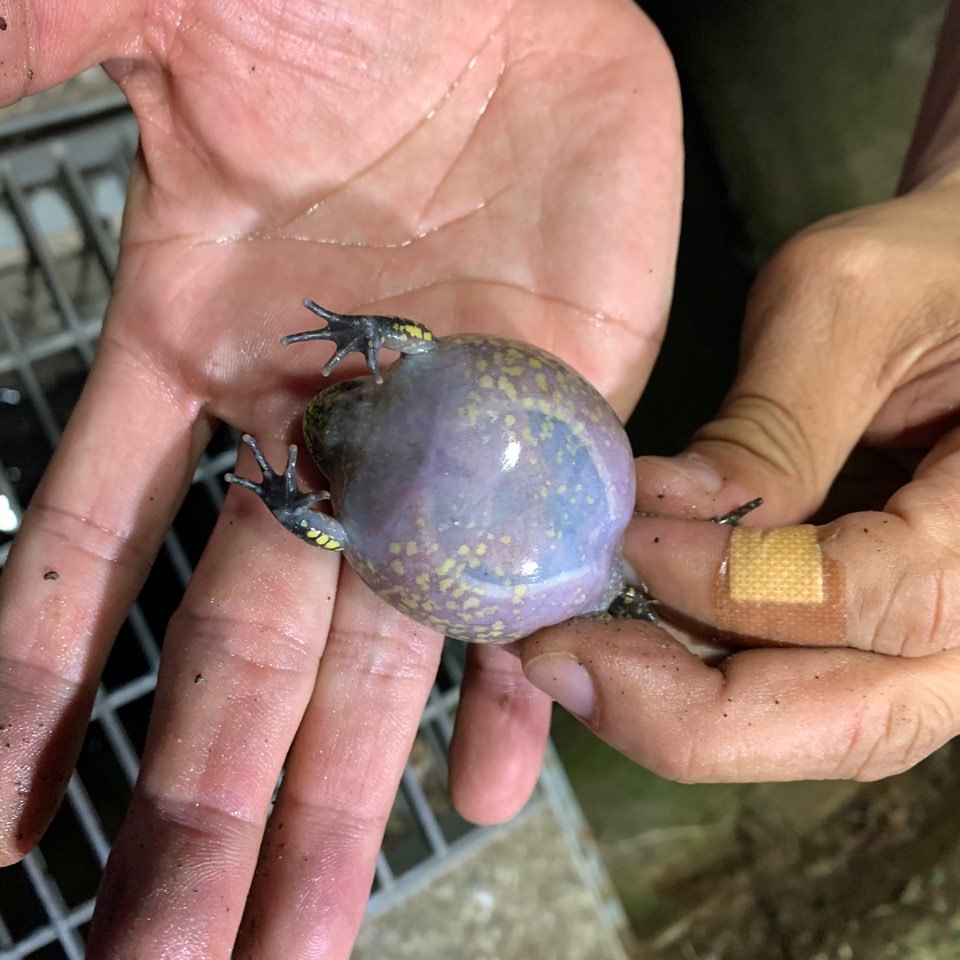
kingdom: Animalia
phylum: Chordata
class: Amphibia
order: Anura
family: Microhylidae
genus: Kaloula
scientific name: Kaloula borealis
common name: Boreal digging frog
